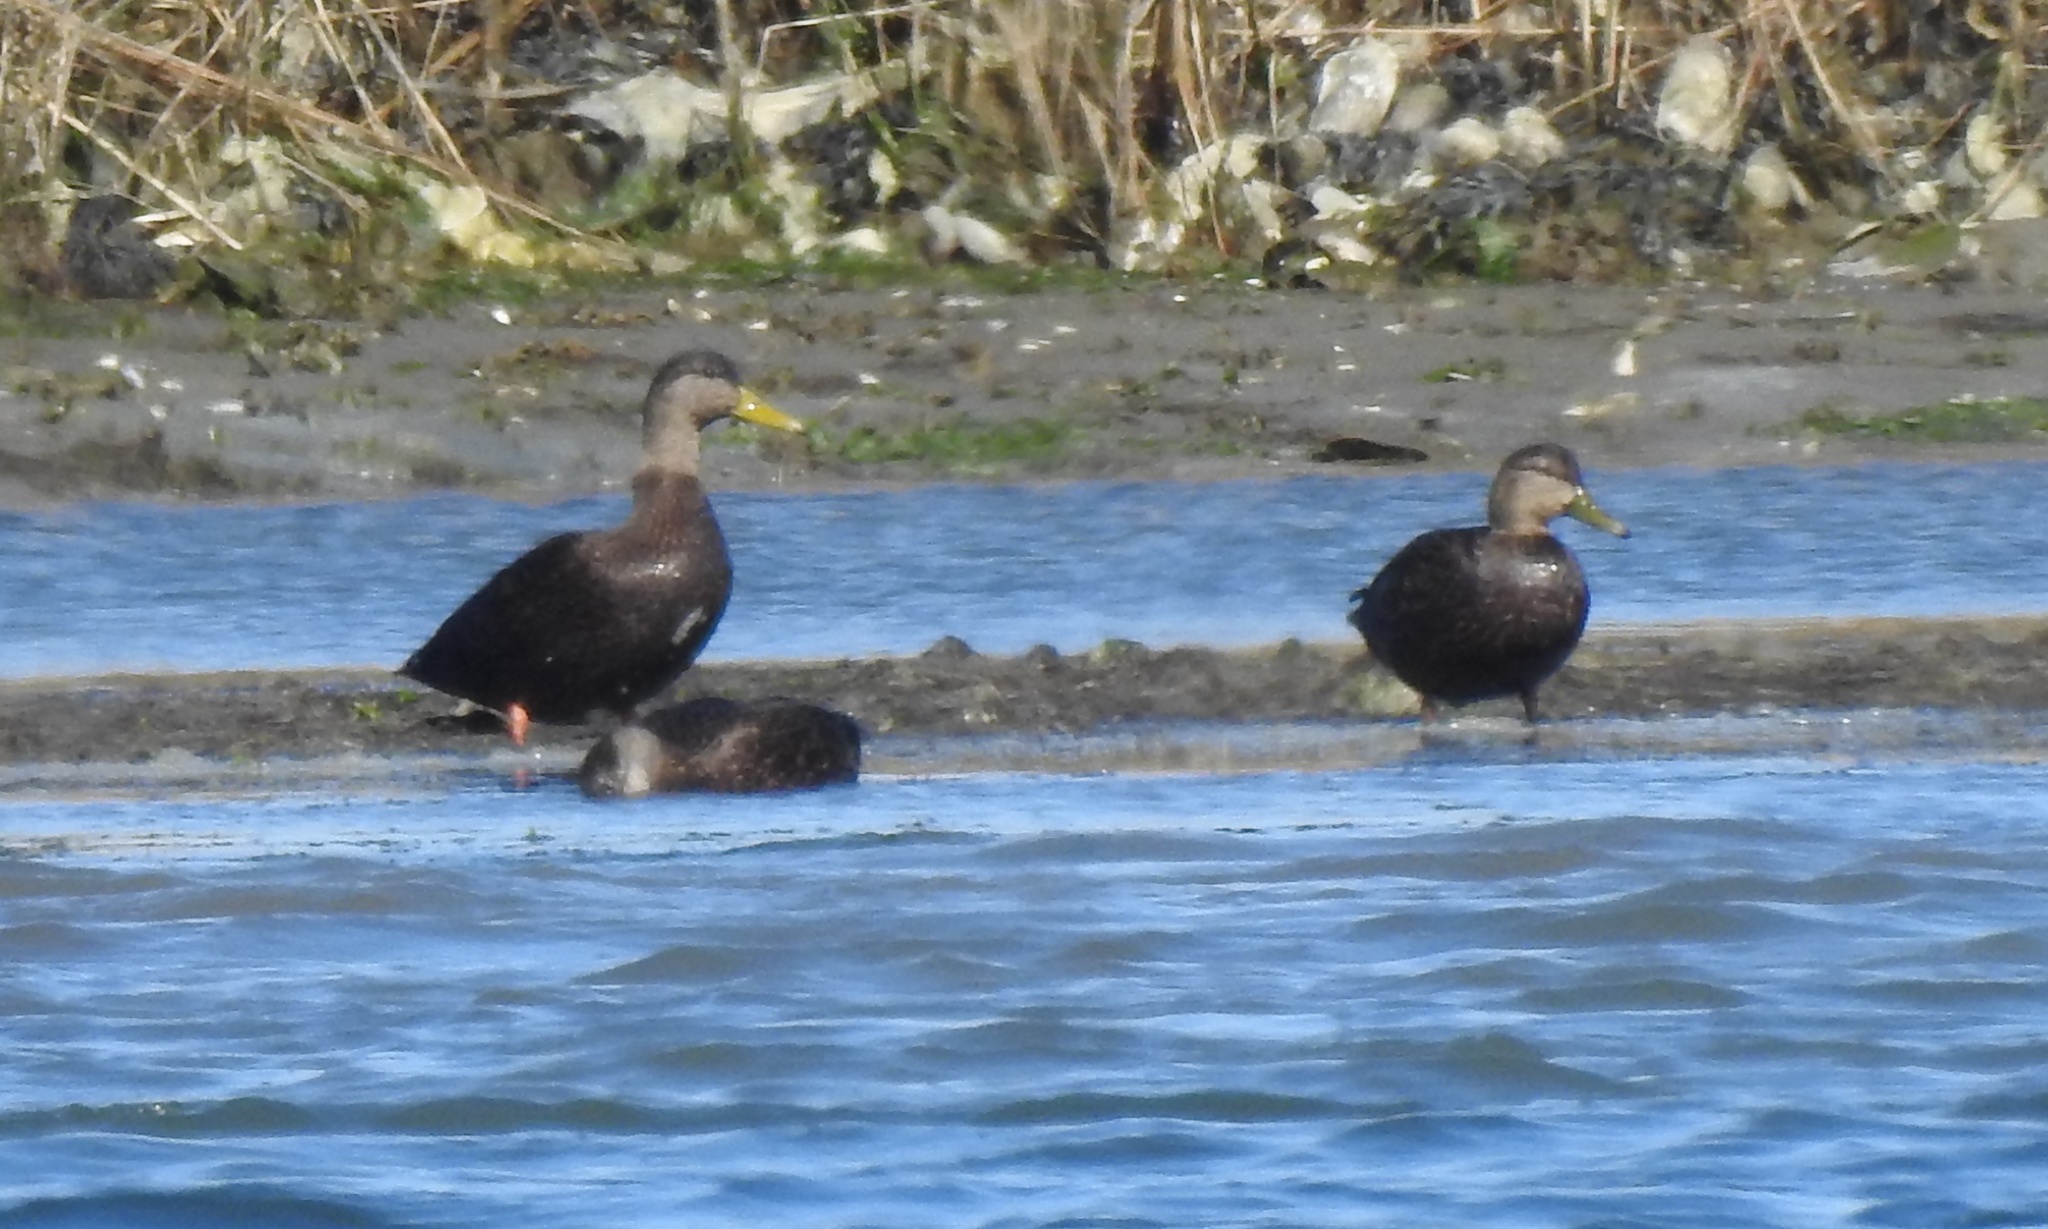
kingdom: Animalia
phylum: Chordata
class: Aves
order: Anseriformes
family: Anatidae
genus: Anas
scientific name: Anas rubripes
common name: American black duck
